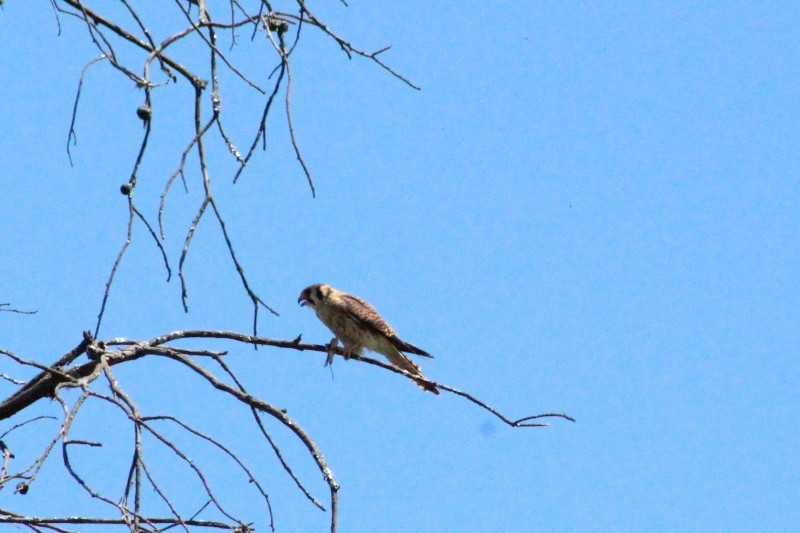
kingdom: Animalia
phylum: Chordata
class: Aves
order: Falconiformes
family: Falconidae
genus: Falco
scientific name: Falco sparverius
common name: American kestrel
